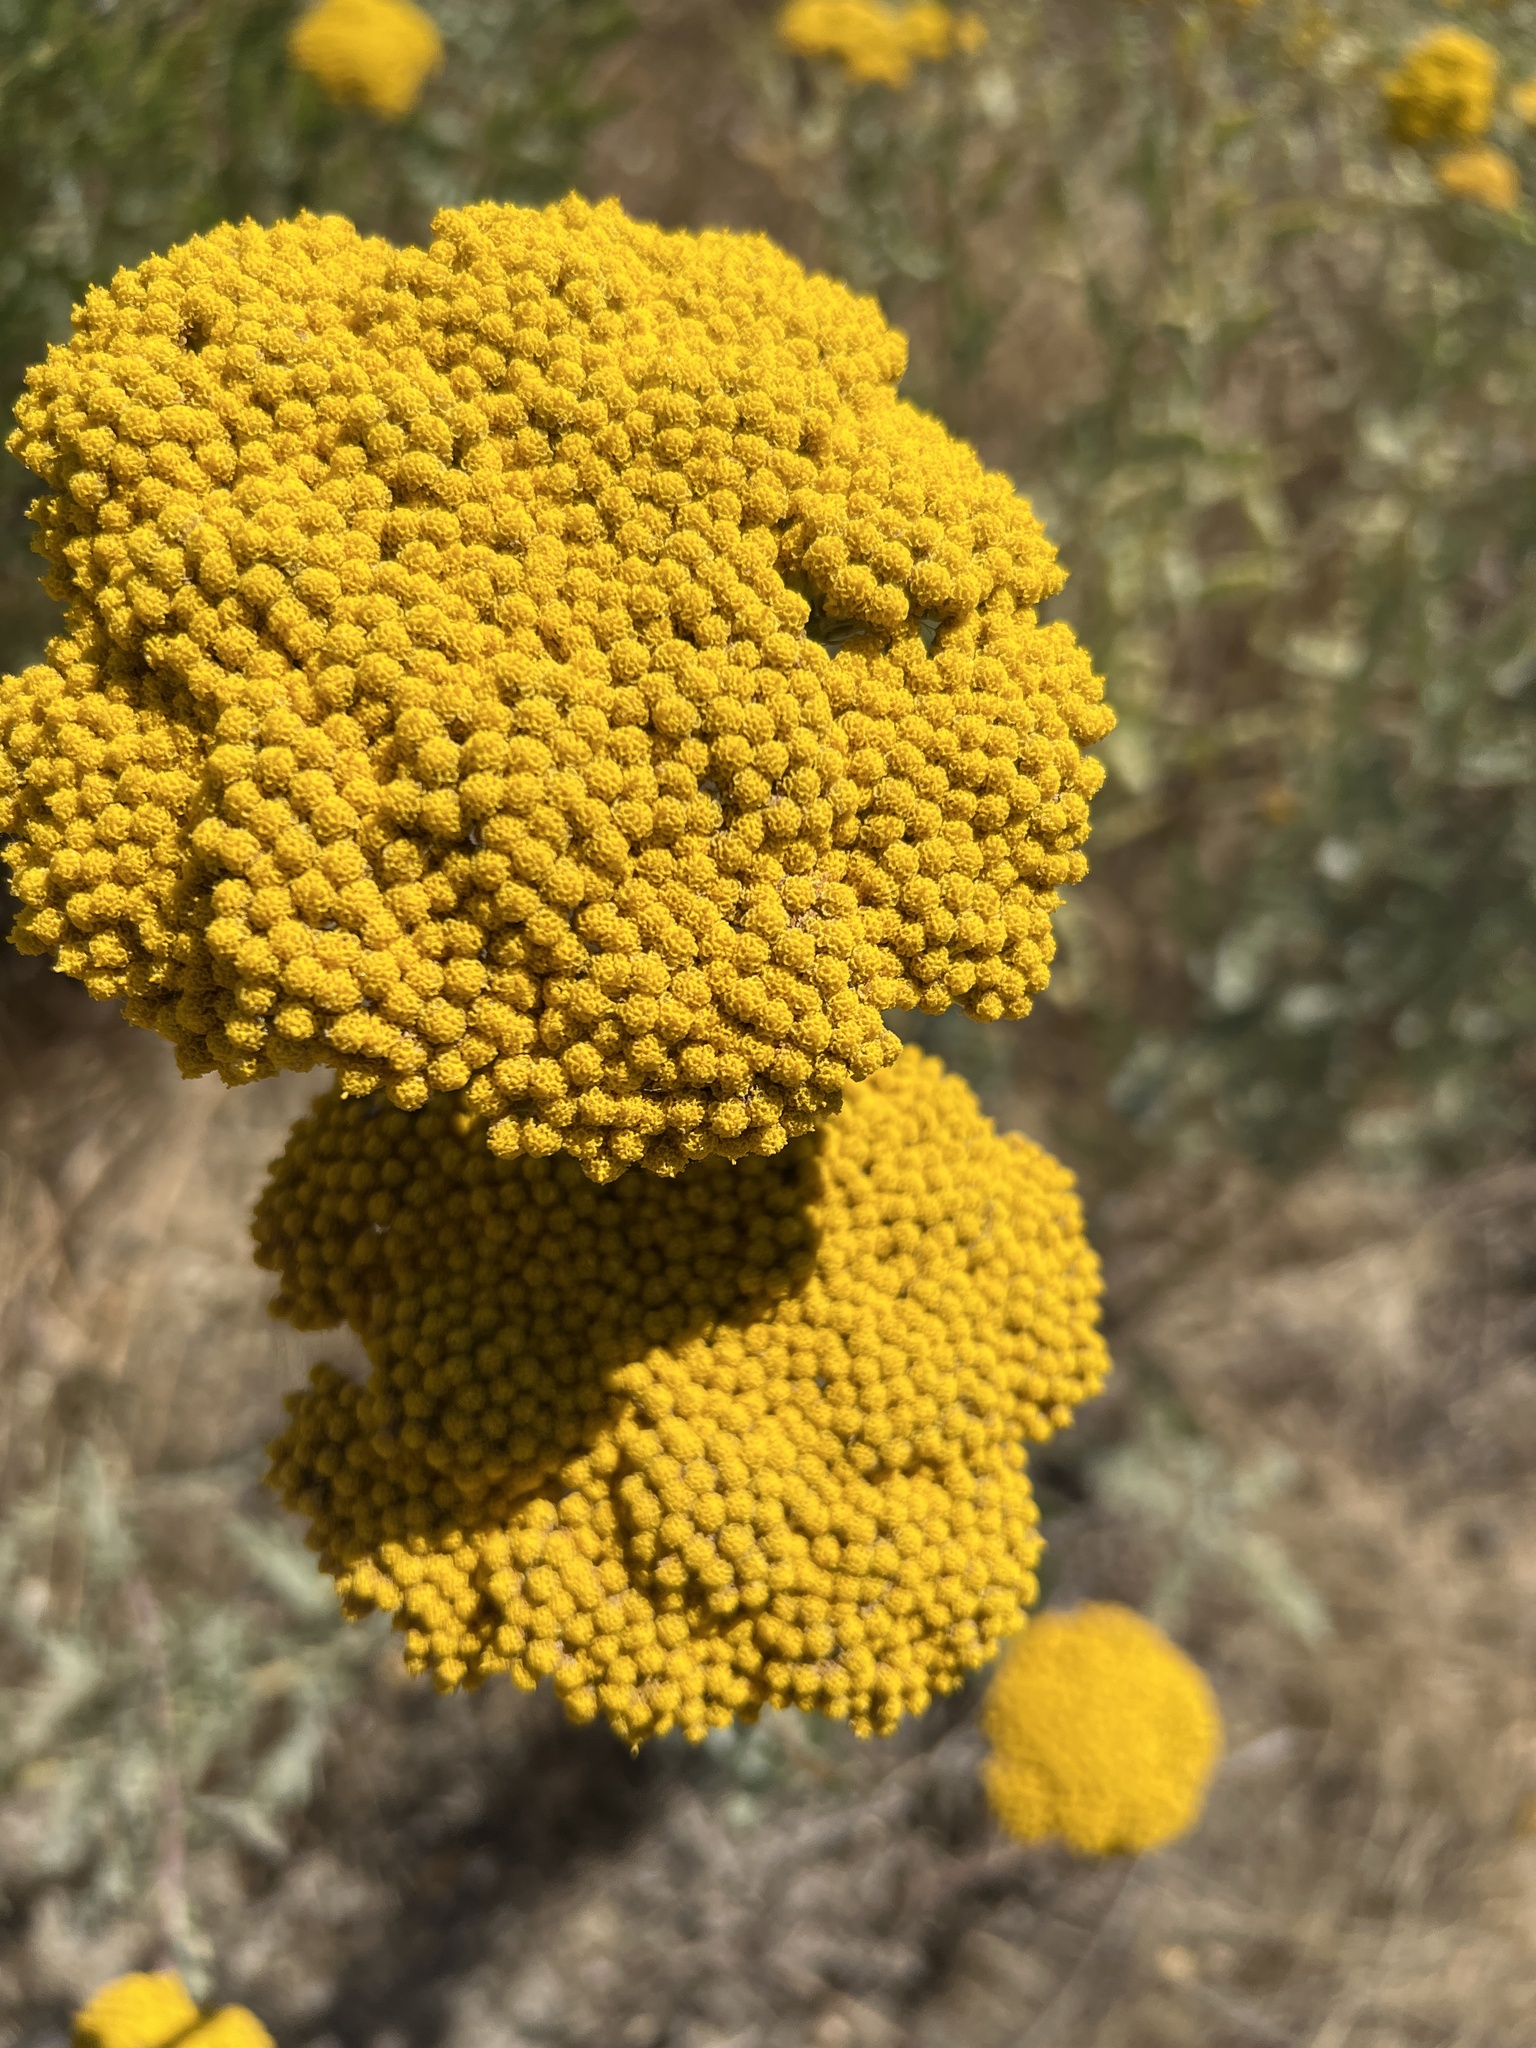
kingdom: Plantae
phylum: Tracheophyta
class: Magnoliopsida
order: Asterales
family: Asteraceae
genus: Achillea
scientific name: Achillea filipendulina
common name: Fernleaf yarrow
